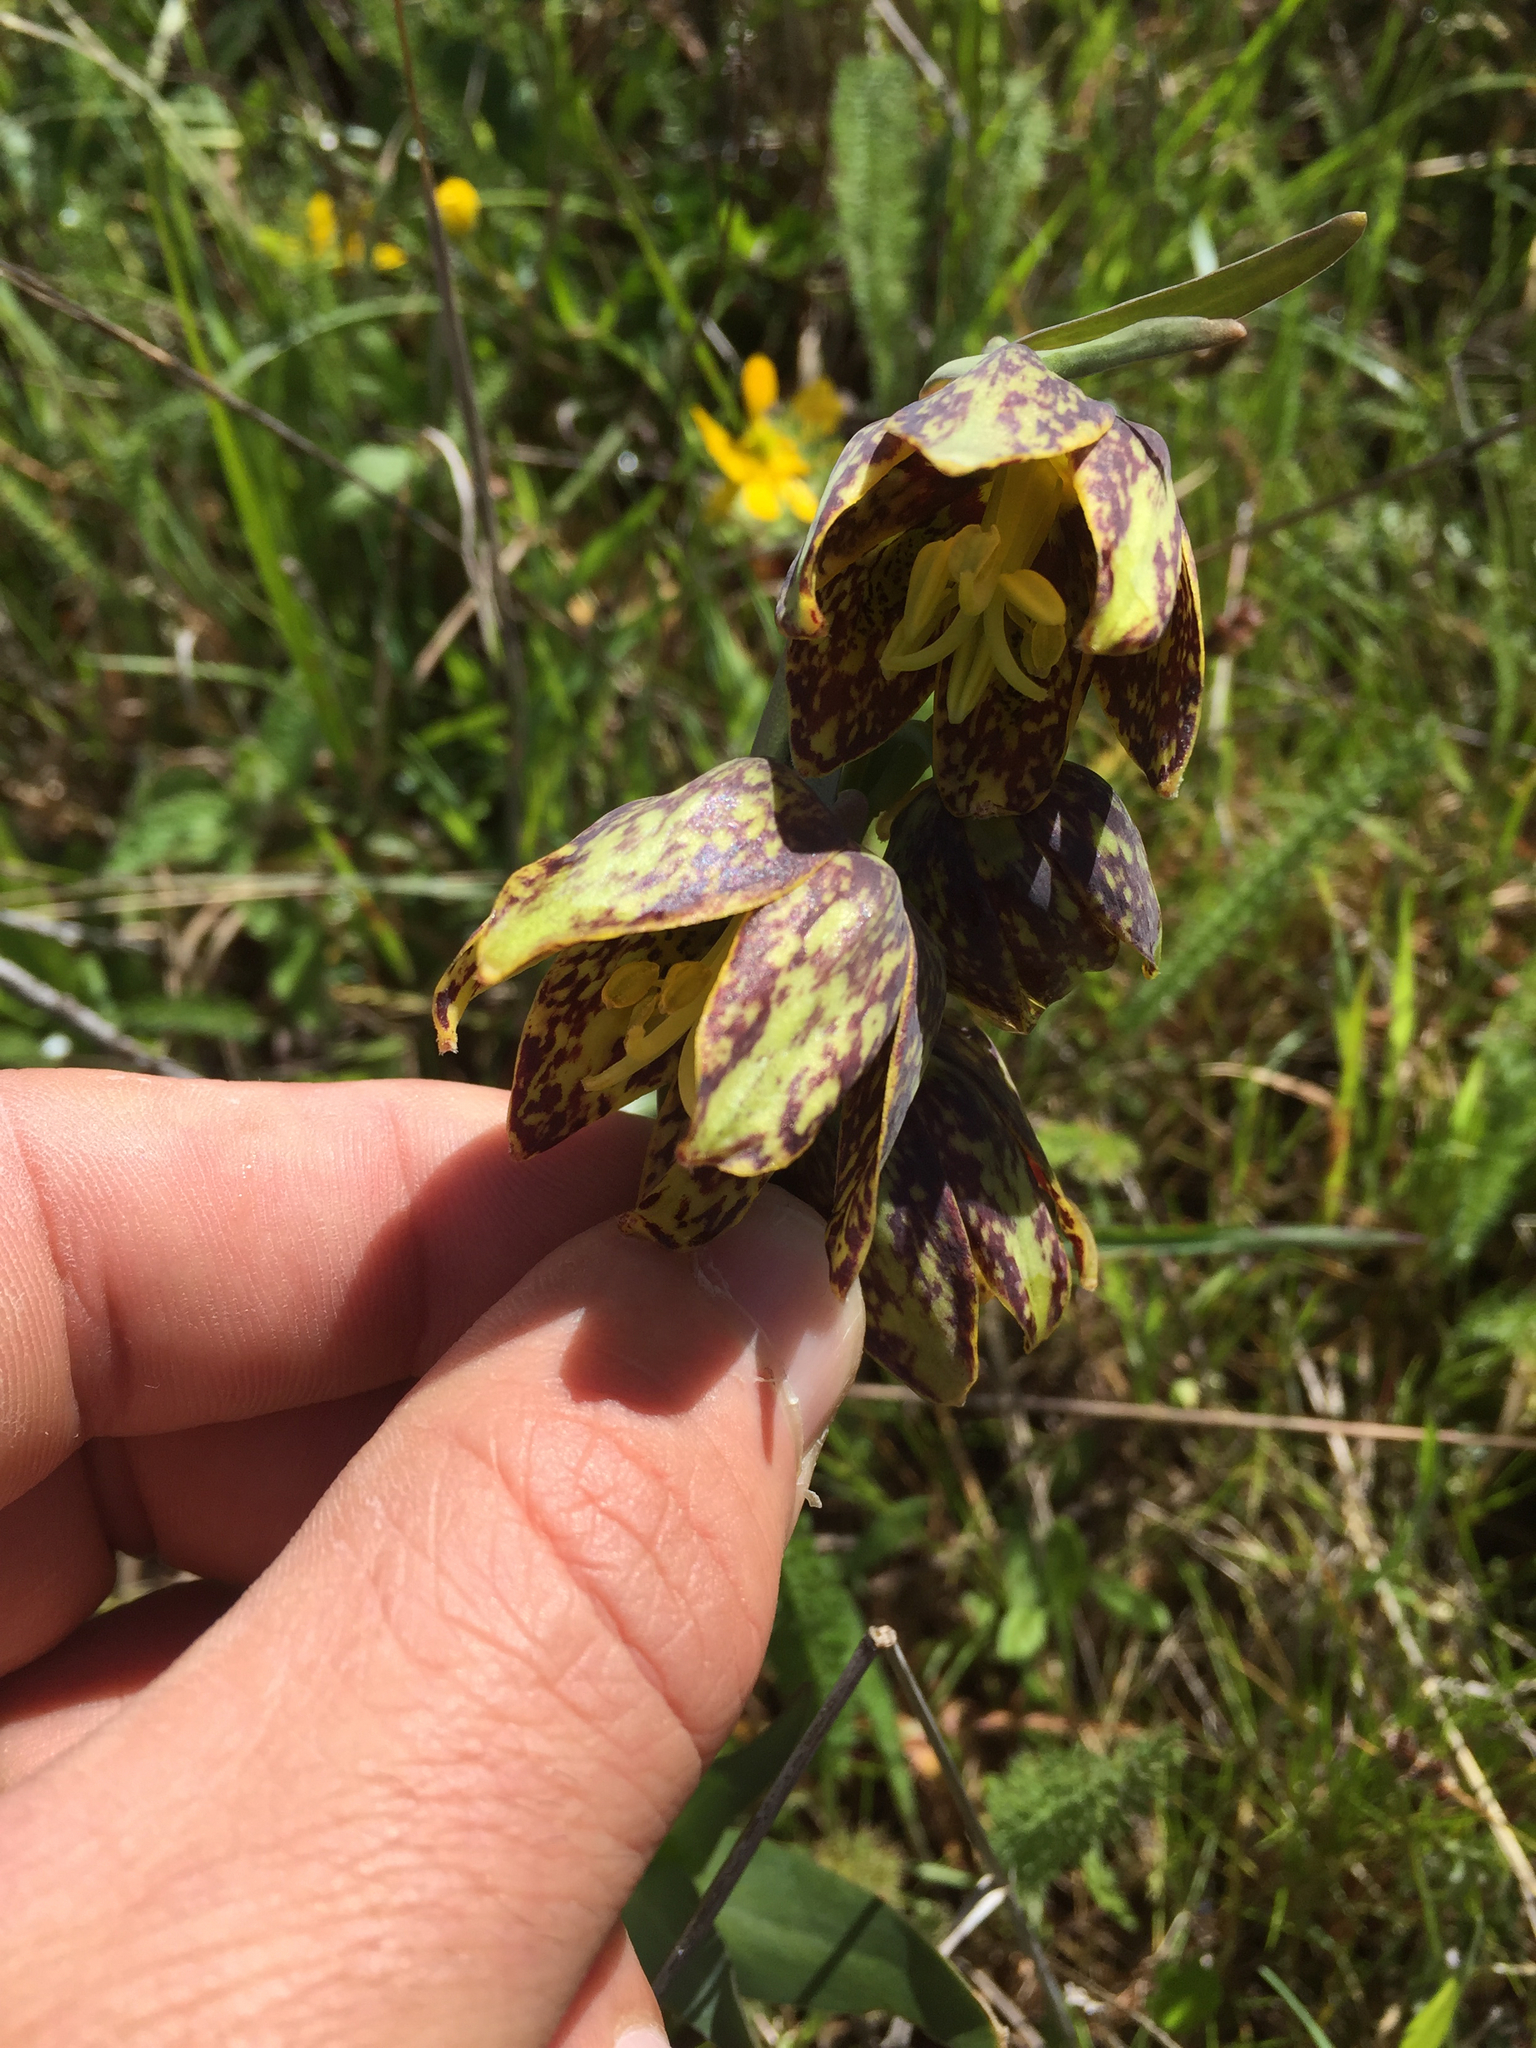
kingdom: Plantae
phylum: Tracheophyta
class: Liliopsida
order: Liliales
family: Liliaceae
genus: Fritillaria
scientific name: Fritillaria affinis
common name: Ojai fritillary
